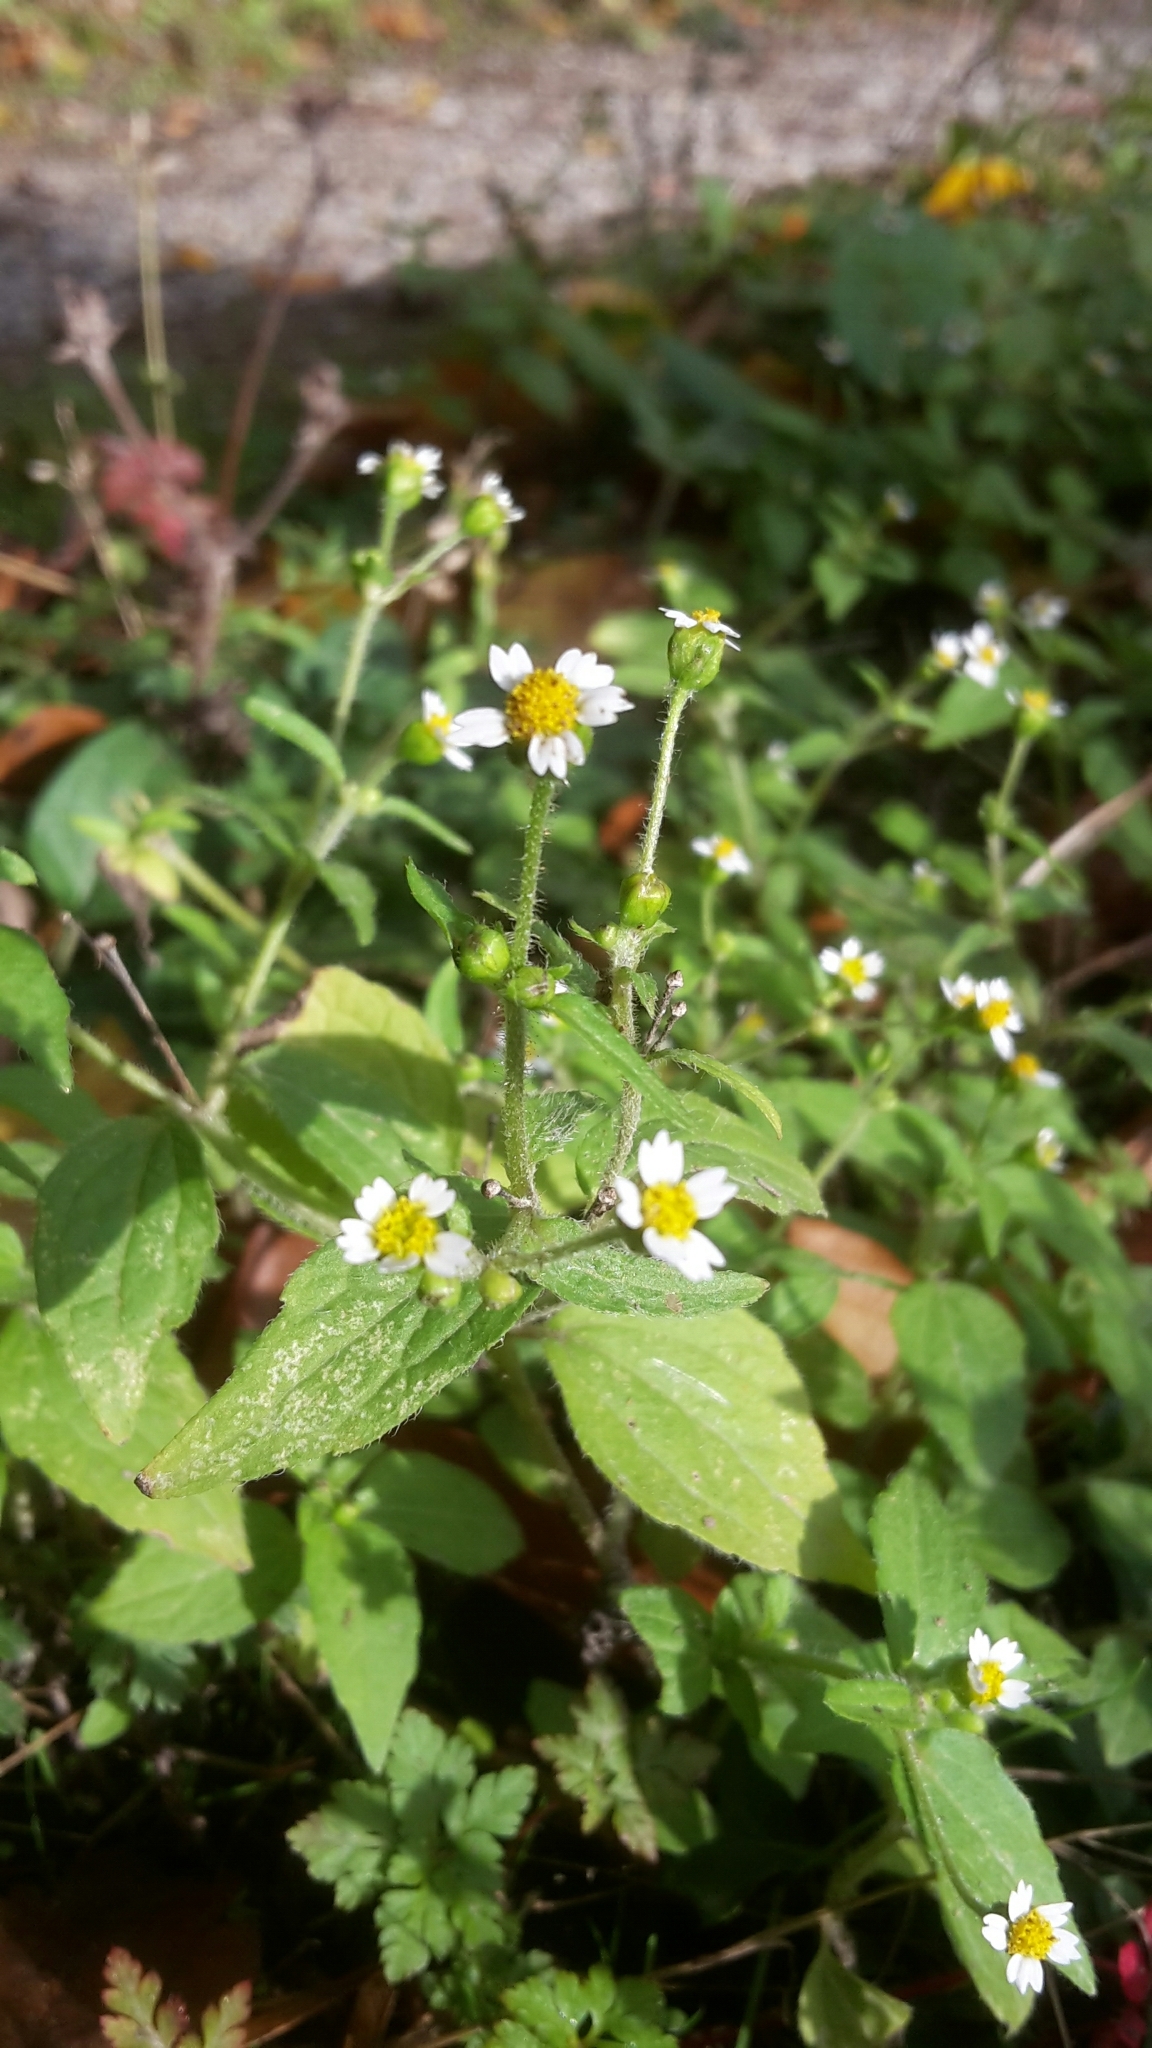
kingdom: Plantae
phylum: Tracheophyta
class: Magnoliopsida
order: Asterales
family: Asteraceae
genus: Galinsoga
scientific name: Galinsoga quadriradiata
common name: Shaggy soldier
